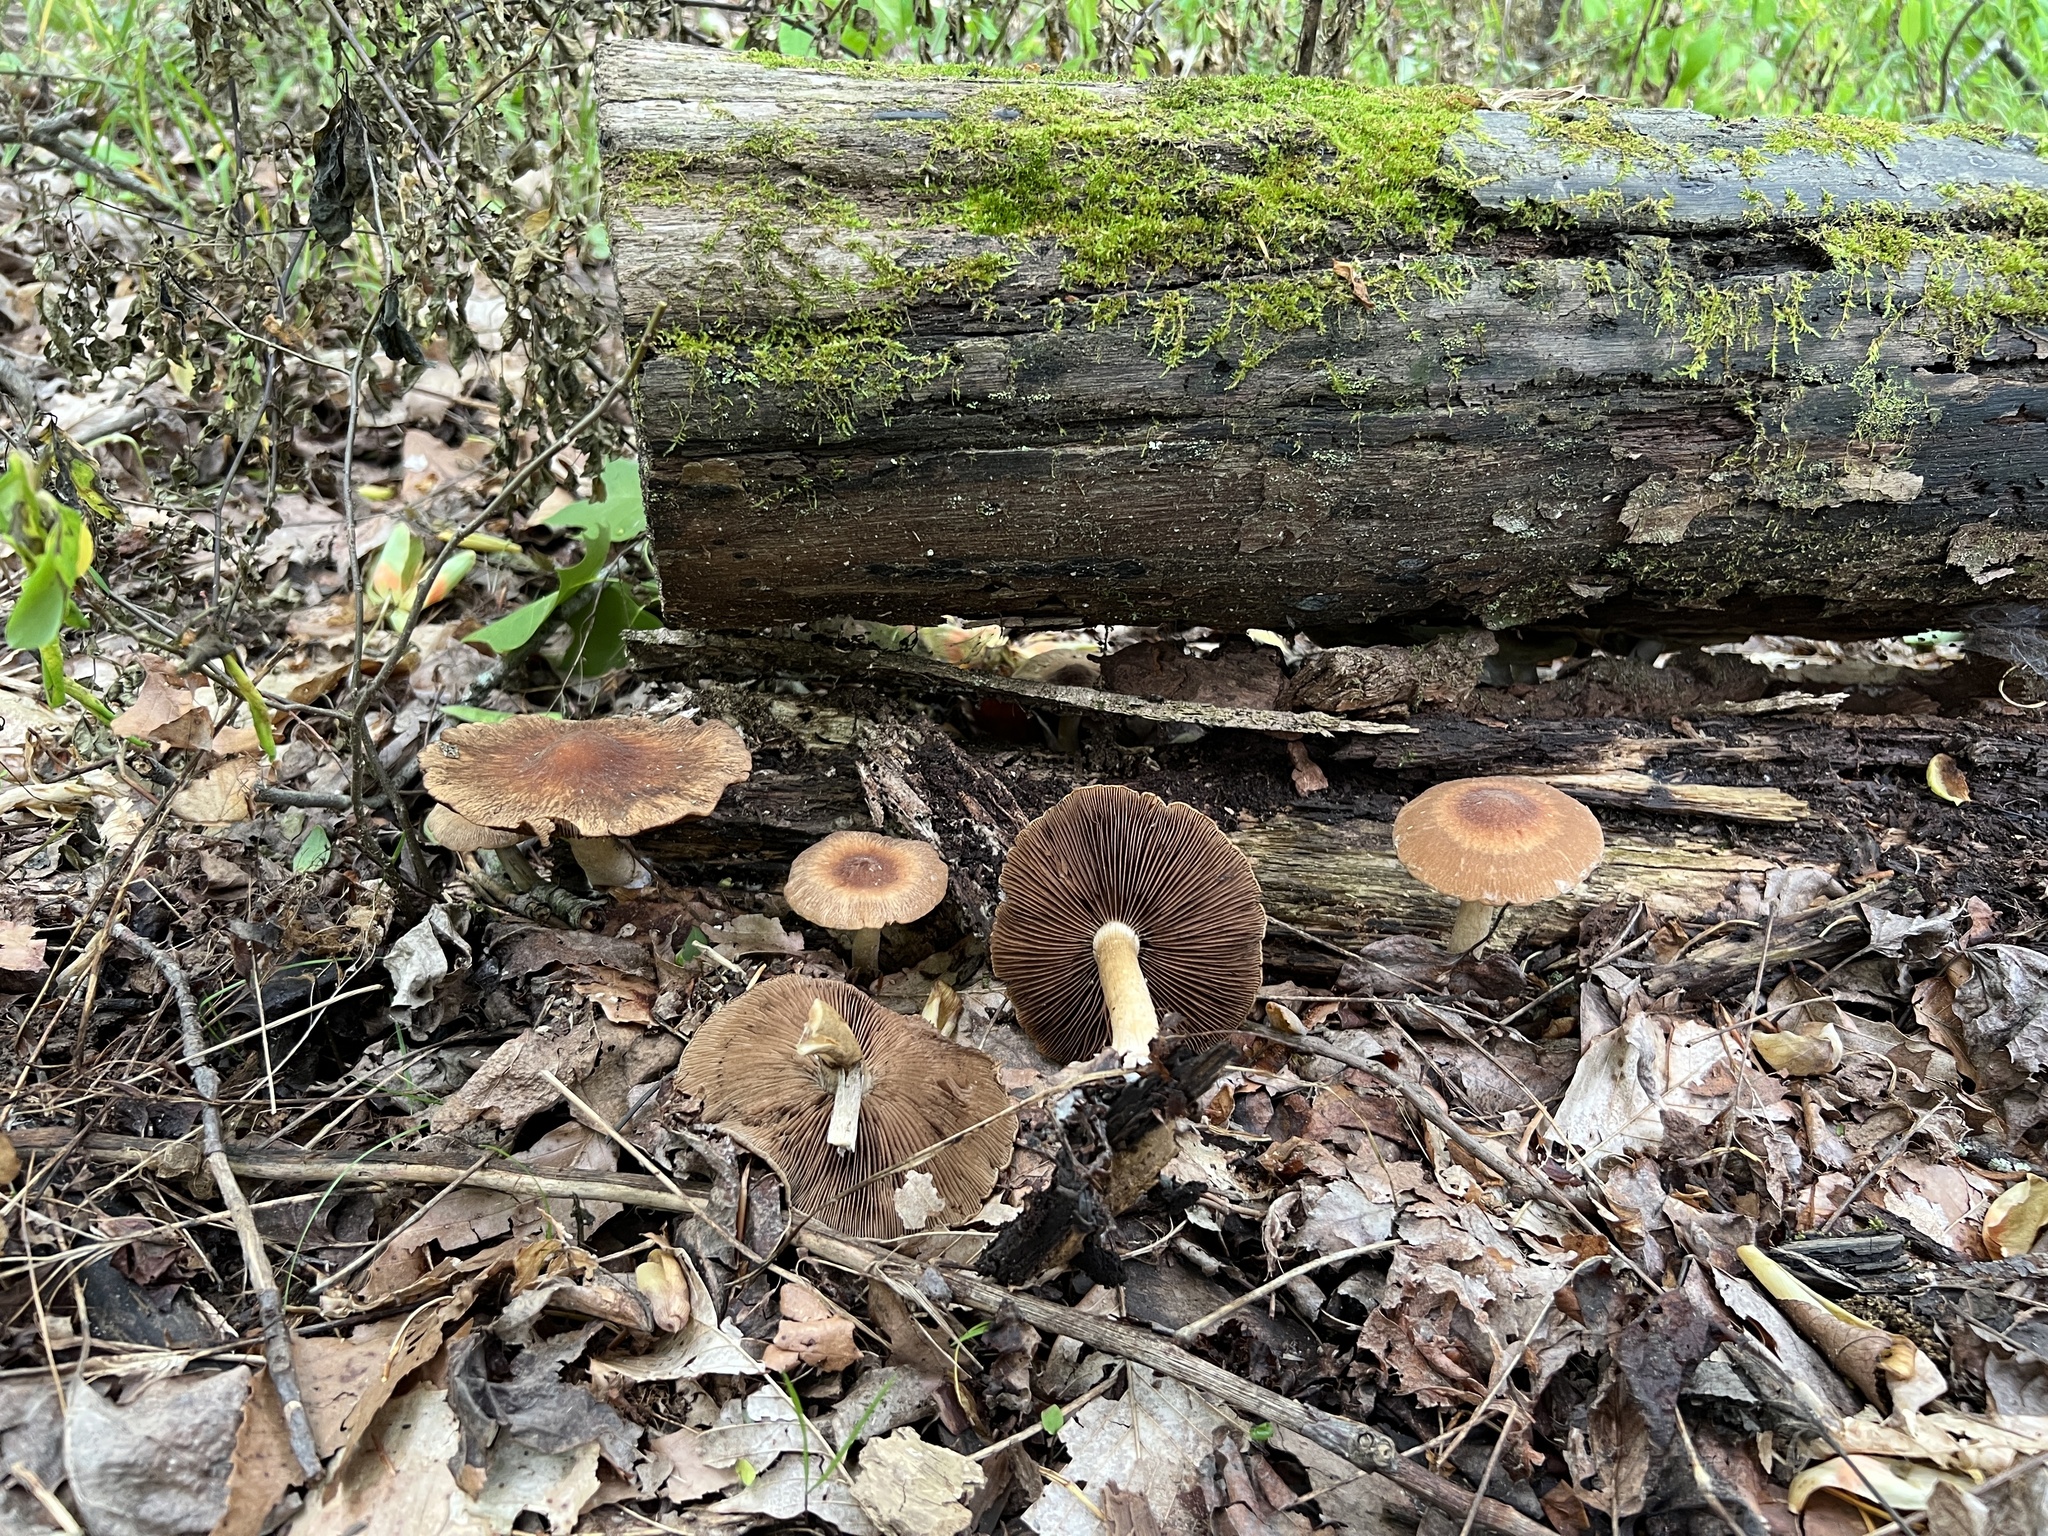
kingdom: Fungi
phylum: Basidiomycota
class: Agaricomycetes
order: Agaricales
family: Psathyrellaceae
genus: Typhrasa
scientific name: Typhrasa gossypina
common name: Wrinkled psathyrella
